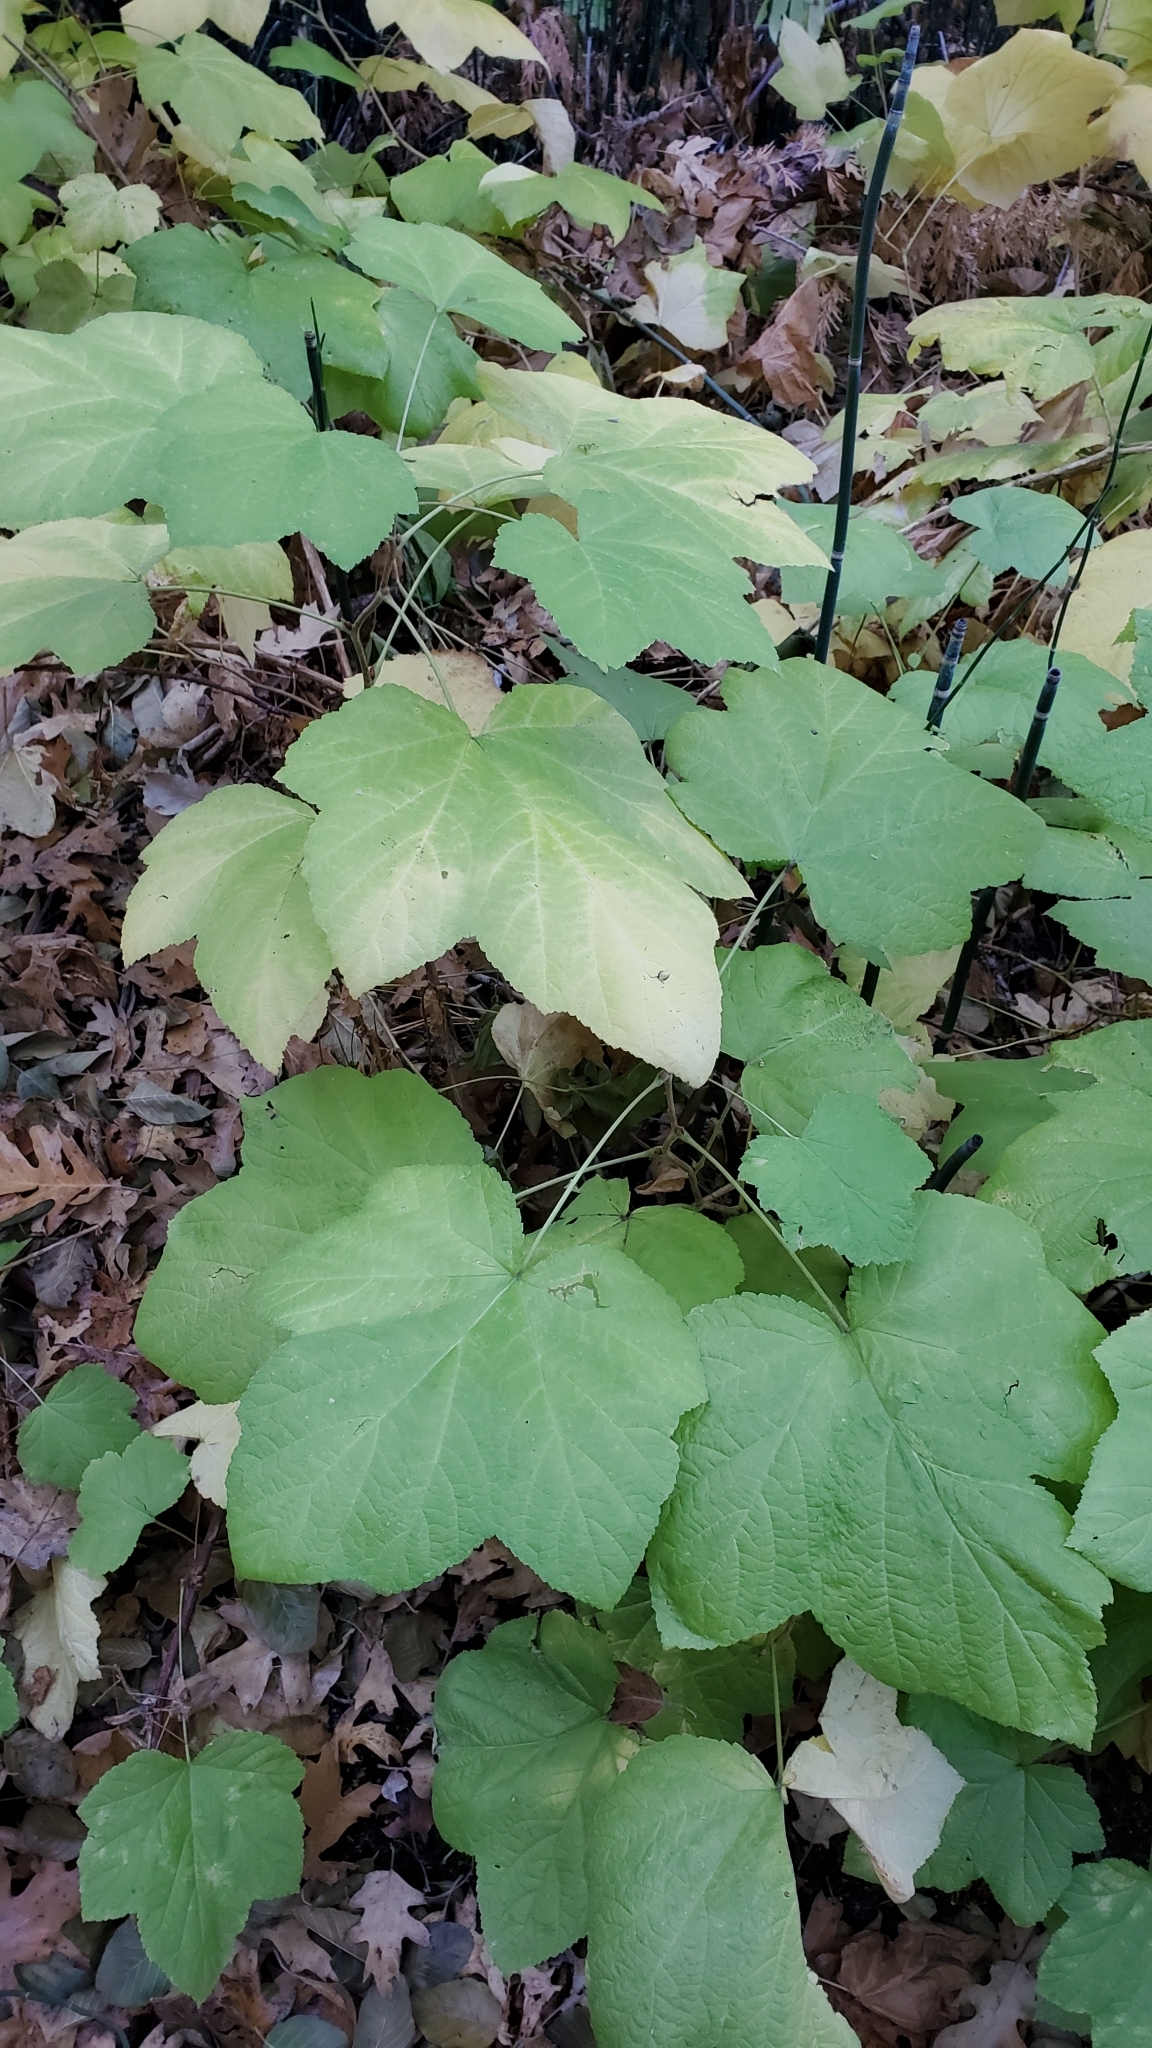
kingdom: Plantae
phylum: Tracheophyta
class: Magnoliopsida
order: Rosales
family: Rosaceae
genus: Rubus
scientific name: Rubus parviflorus
